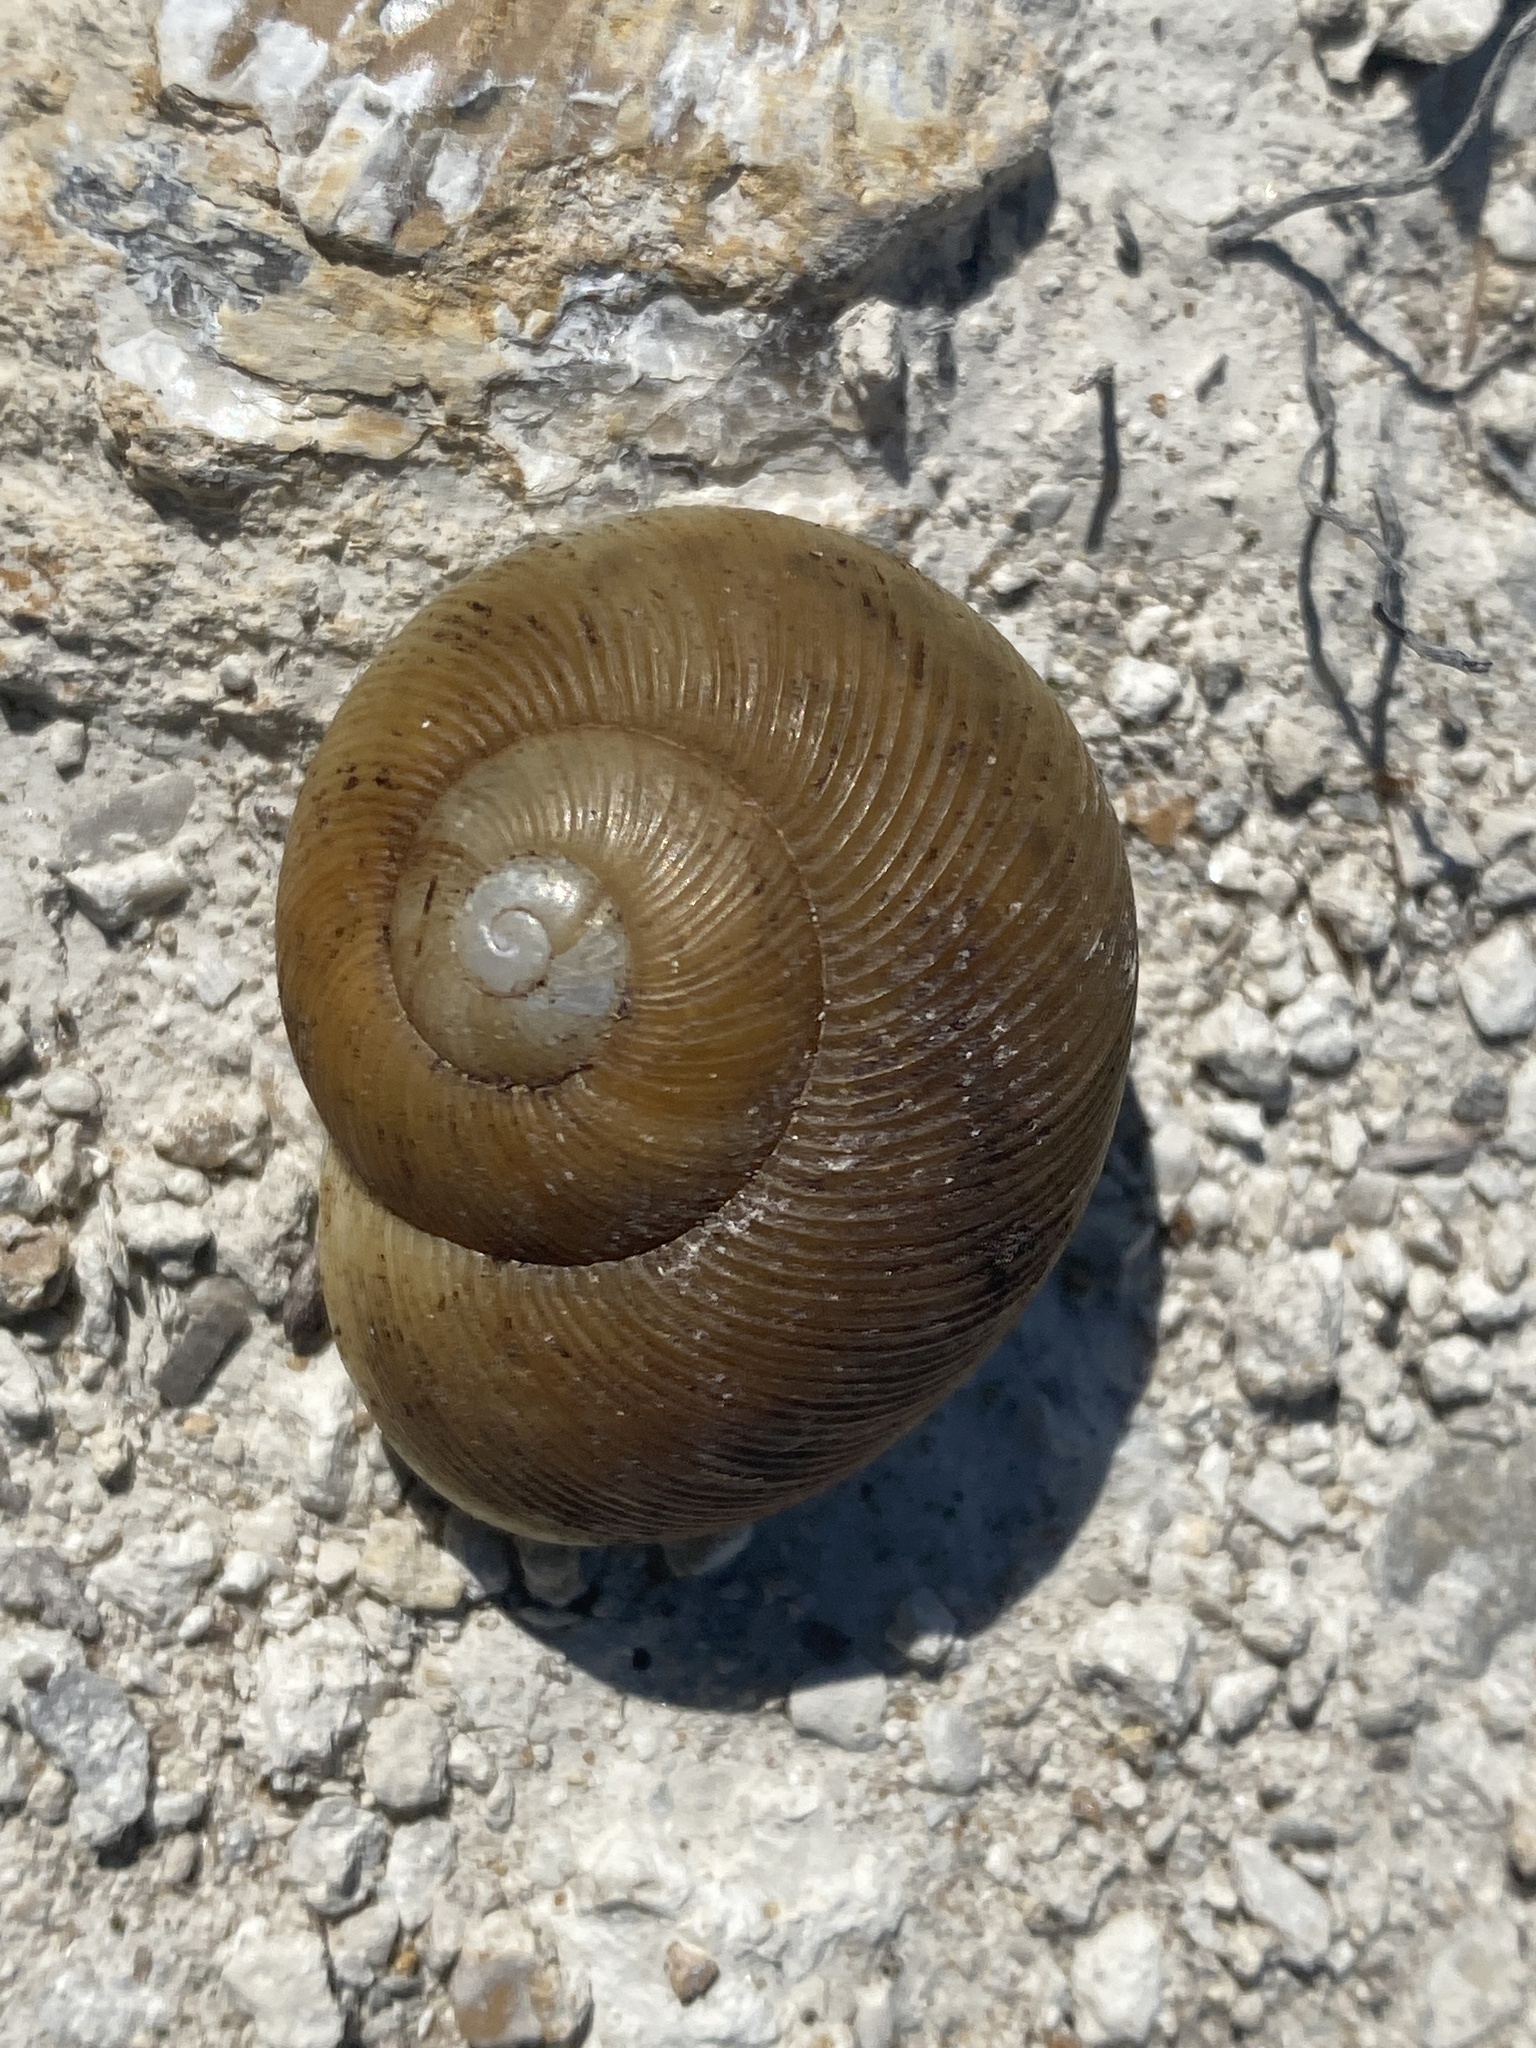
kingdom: Animalia
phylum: Mollusca
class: Gastropoda
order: Stylommatophora
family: Zachrysiidae
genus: Zachrysia
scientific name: Zachrysia provisoria
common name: Garden zachrysia
